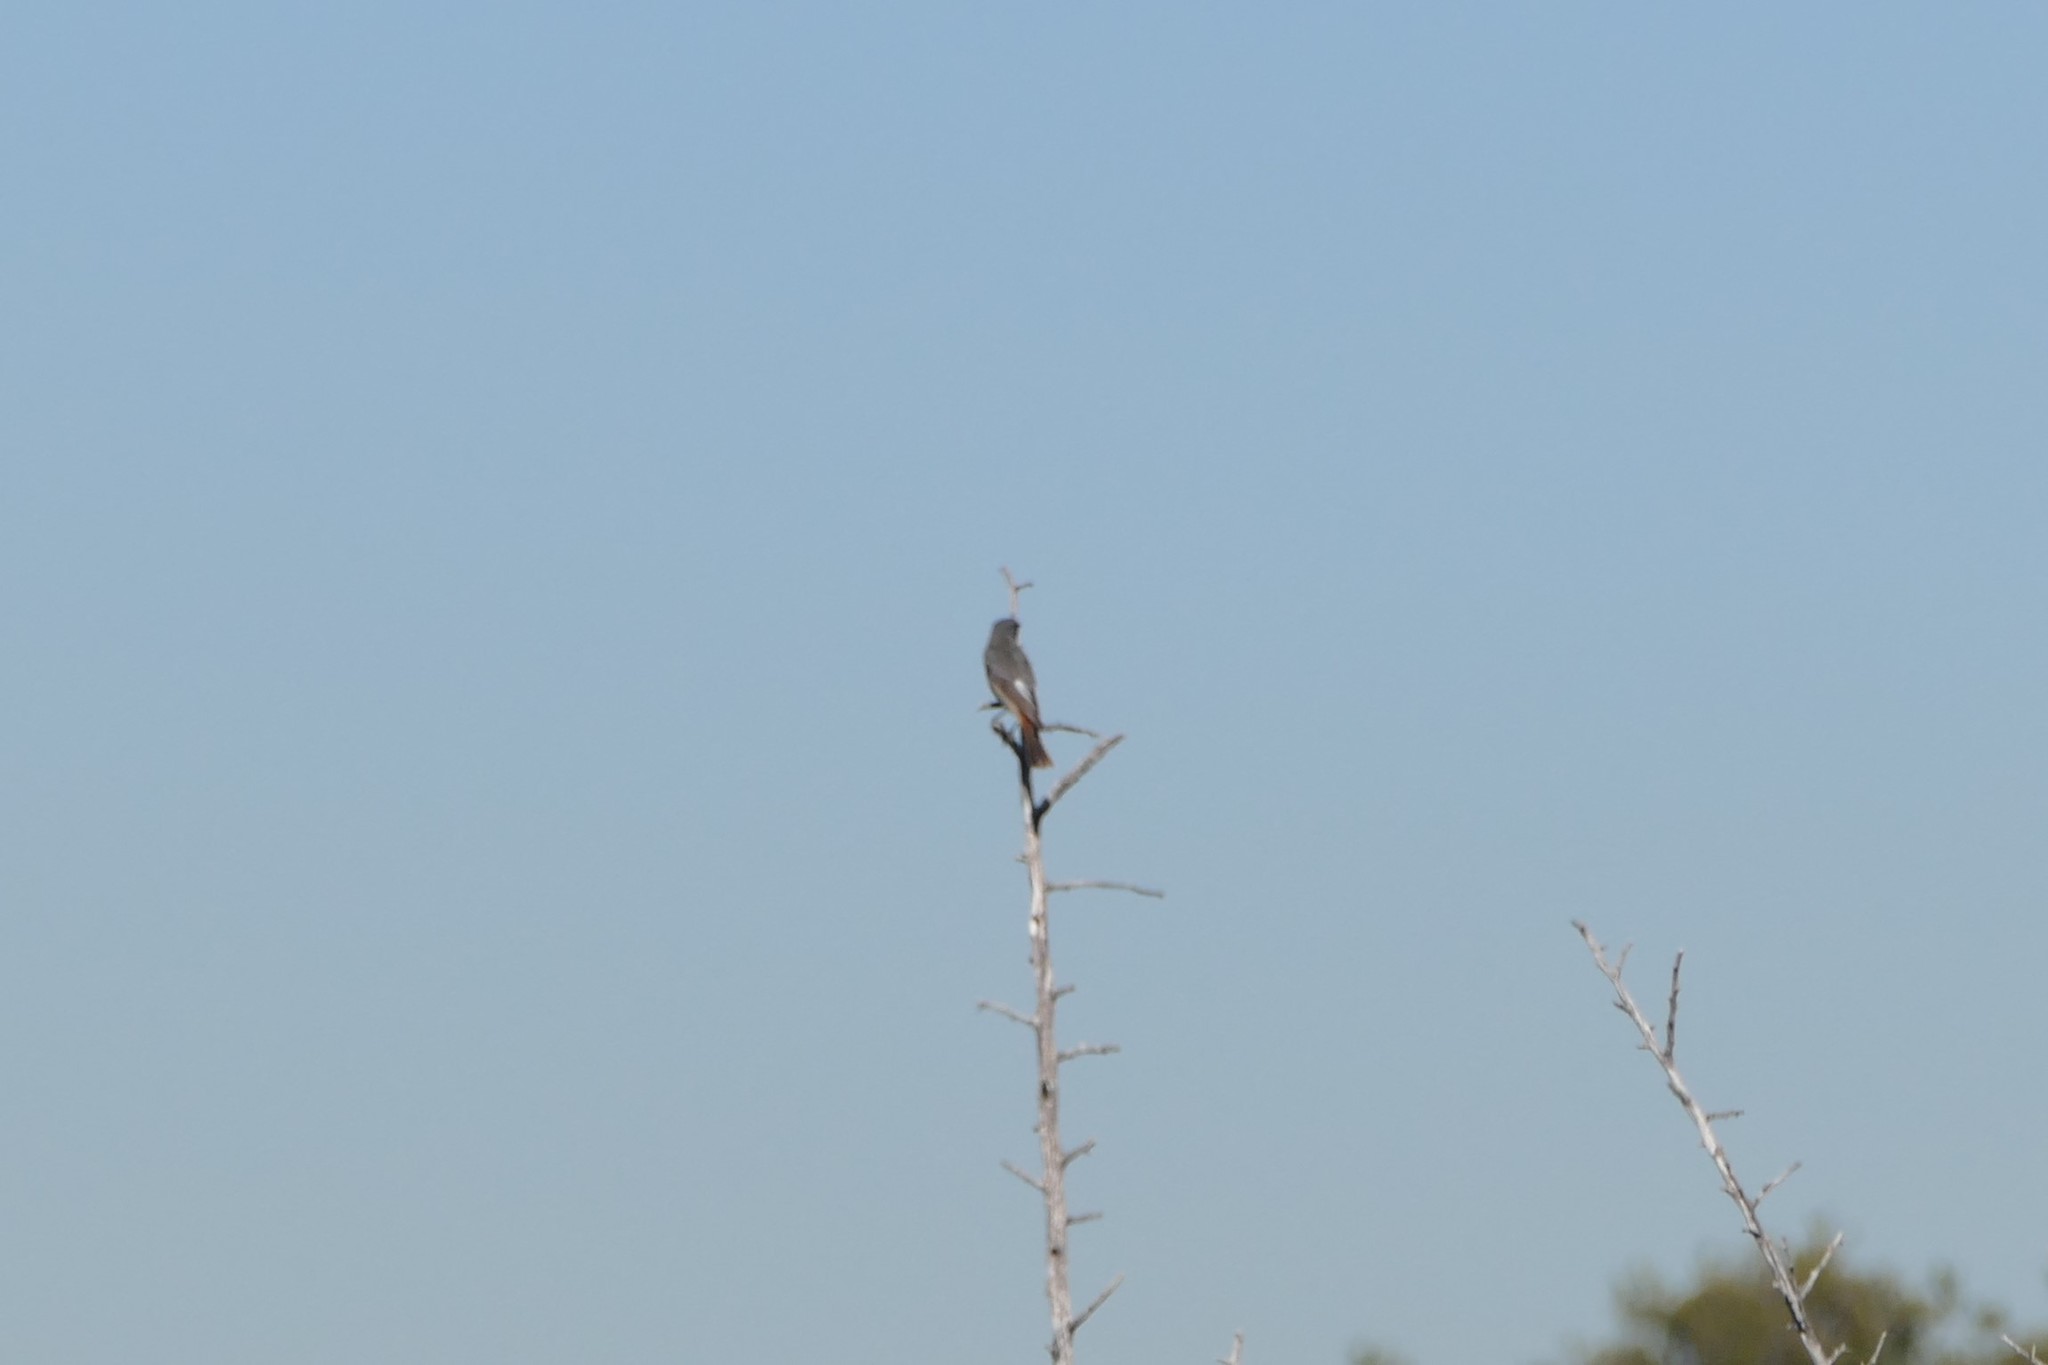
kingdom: Animalia
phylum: Chordata
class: Aves
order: Passeriformes
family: Muscicapidae
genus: Phoenicurus
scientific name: Phoenicurus ochruros
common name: Black redstart
